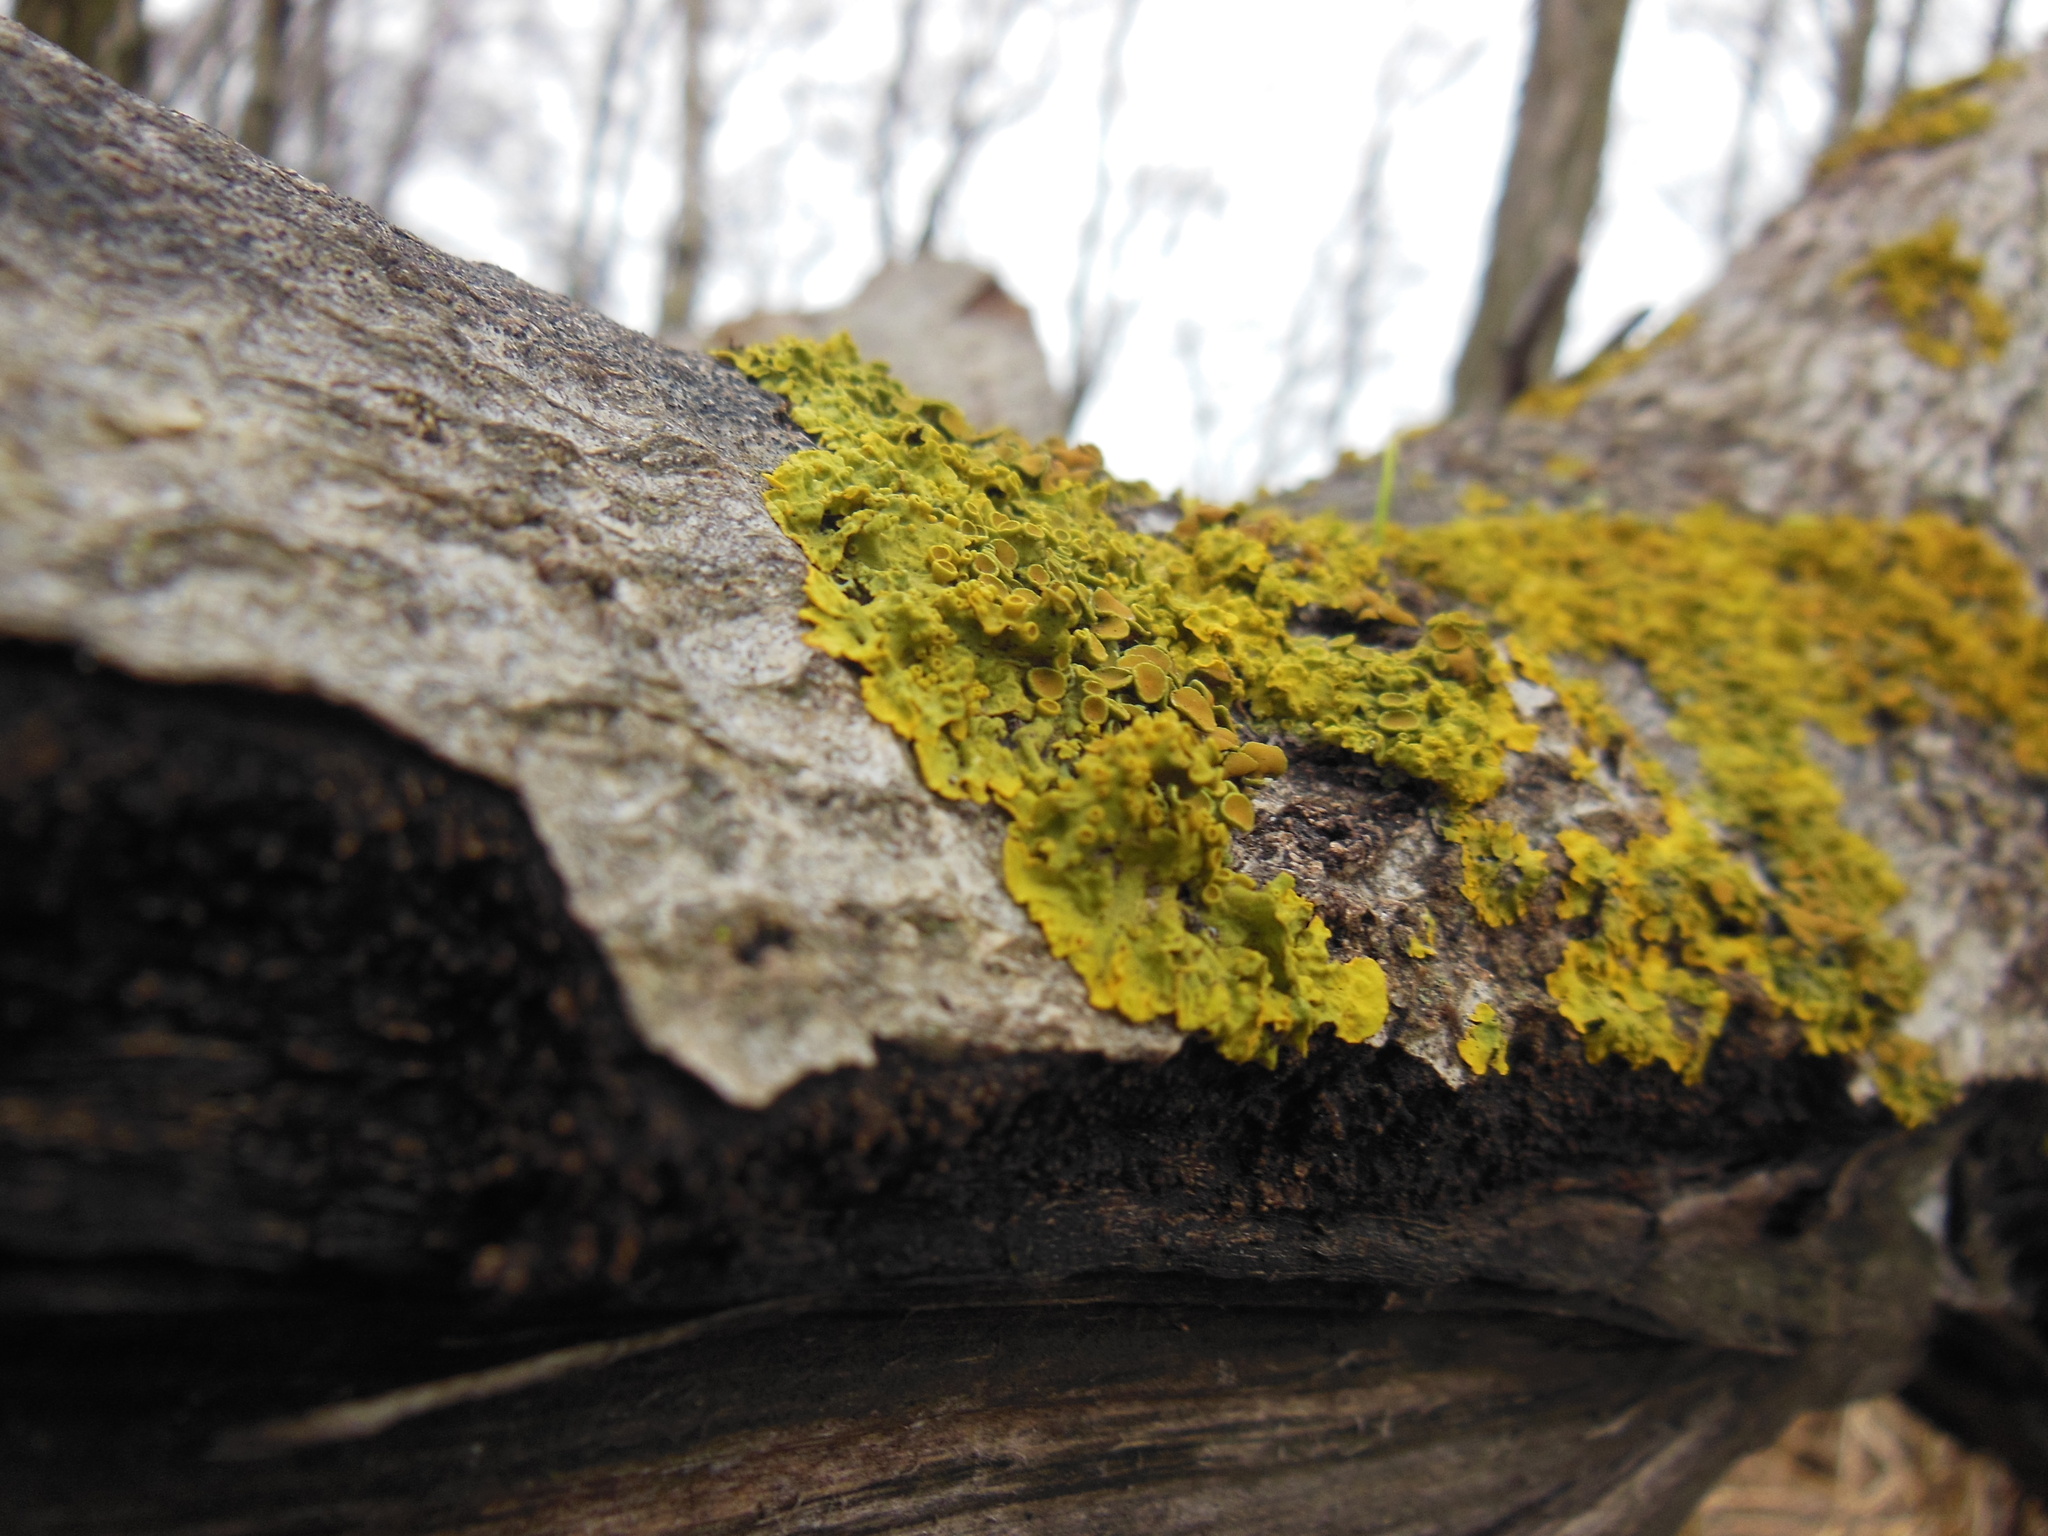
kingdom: Fungi
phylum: Ascomycota
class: Lecanoromycetes
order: Teloschistales
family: Teloschistaceae
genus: Xanthoria
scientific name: Xanthoria parietina
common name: Common orange lichen
